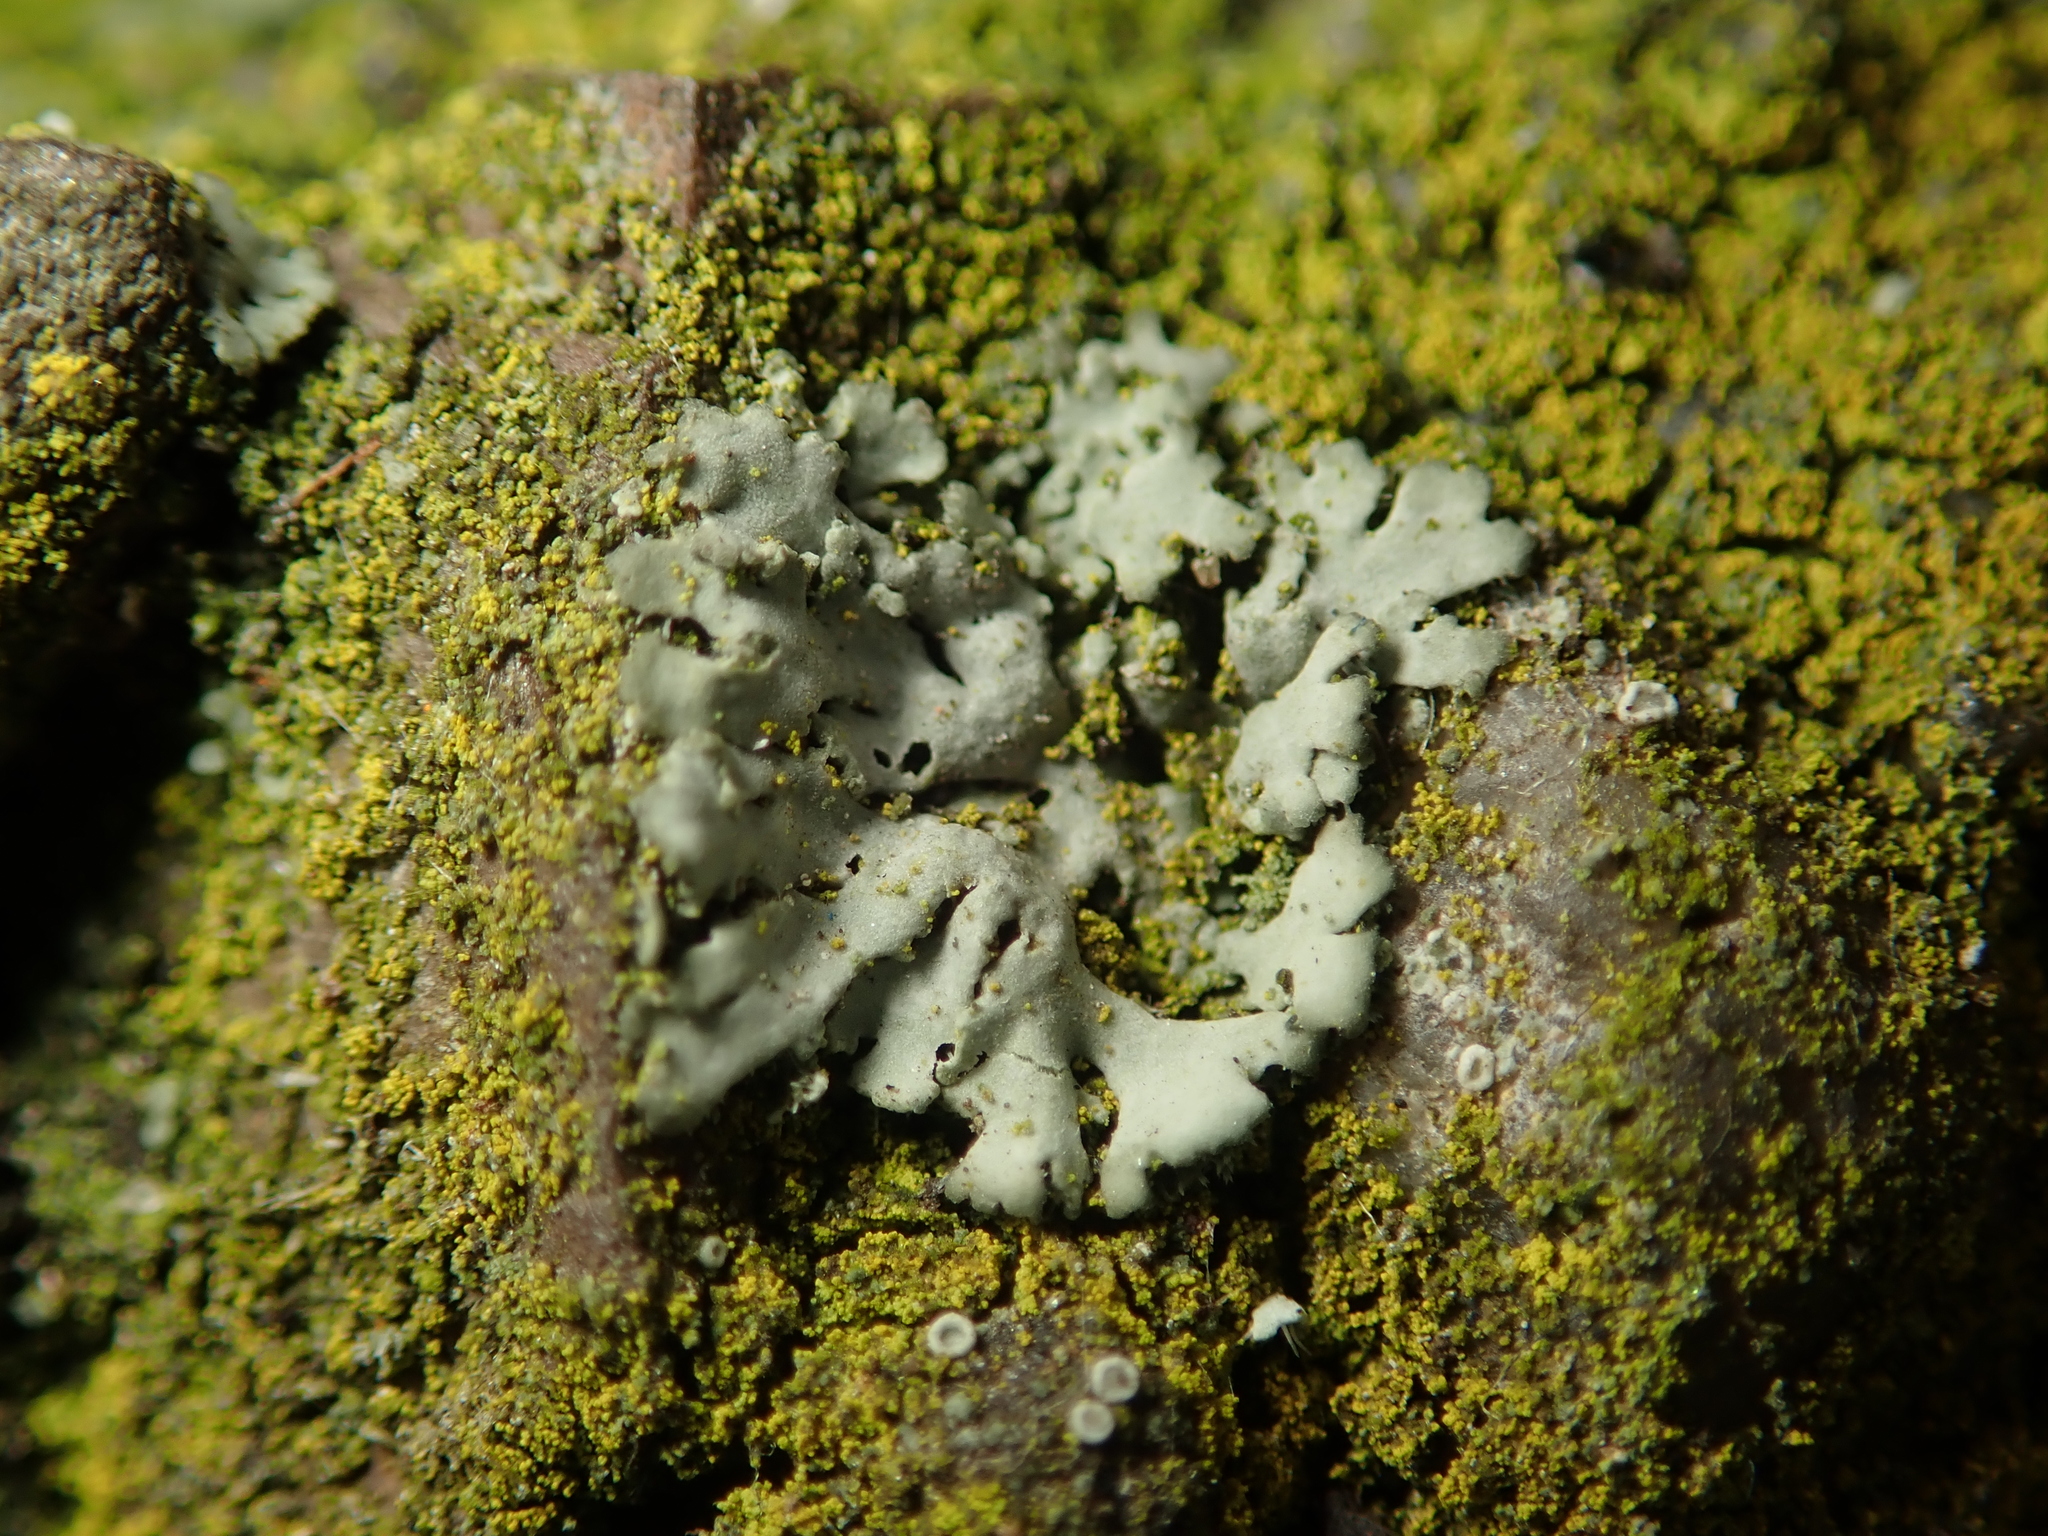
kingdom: Fungi
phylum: Ascomycota
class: Lecanoromycetes
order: Caliciales
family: Physciaceae
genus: Phaeophyscia
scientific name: Phaeophyscia orbicularis
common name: Mealy shadow lichen
